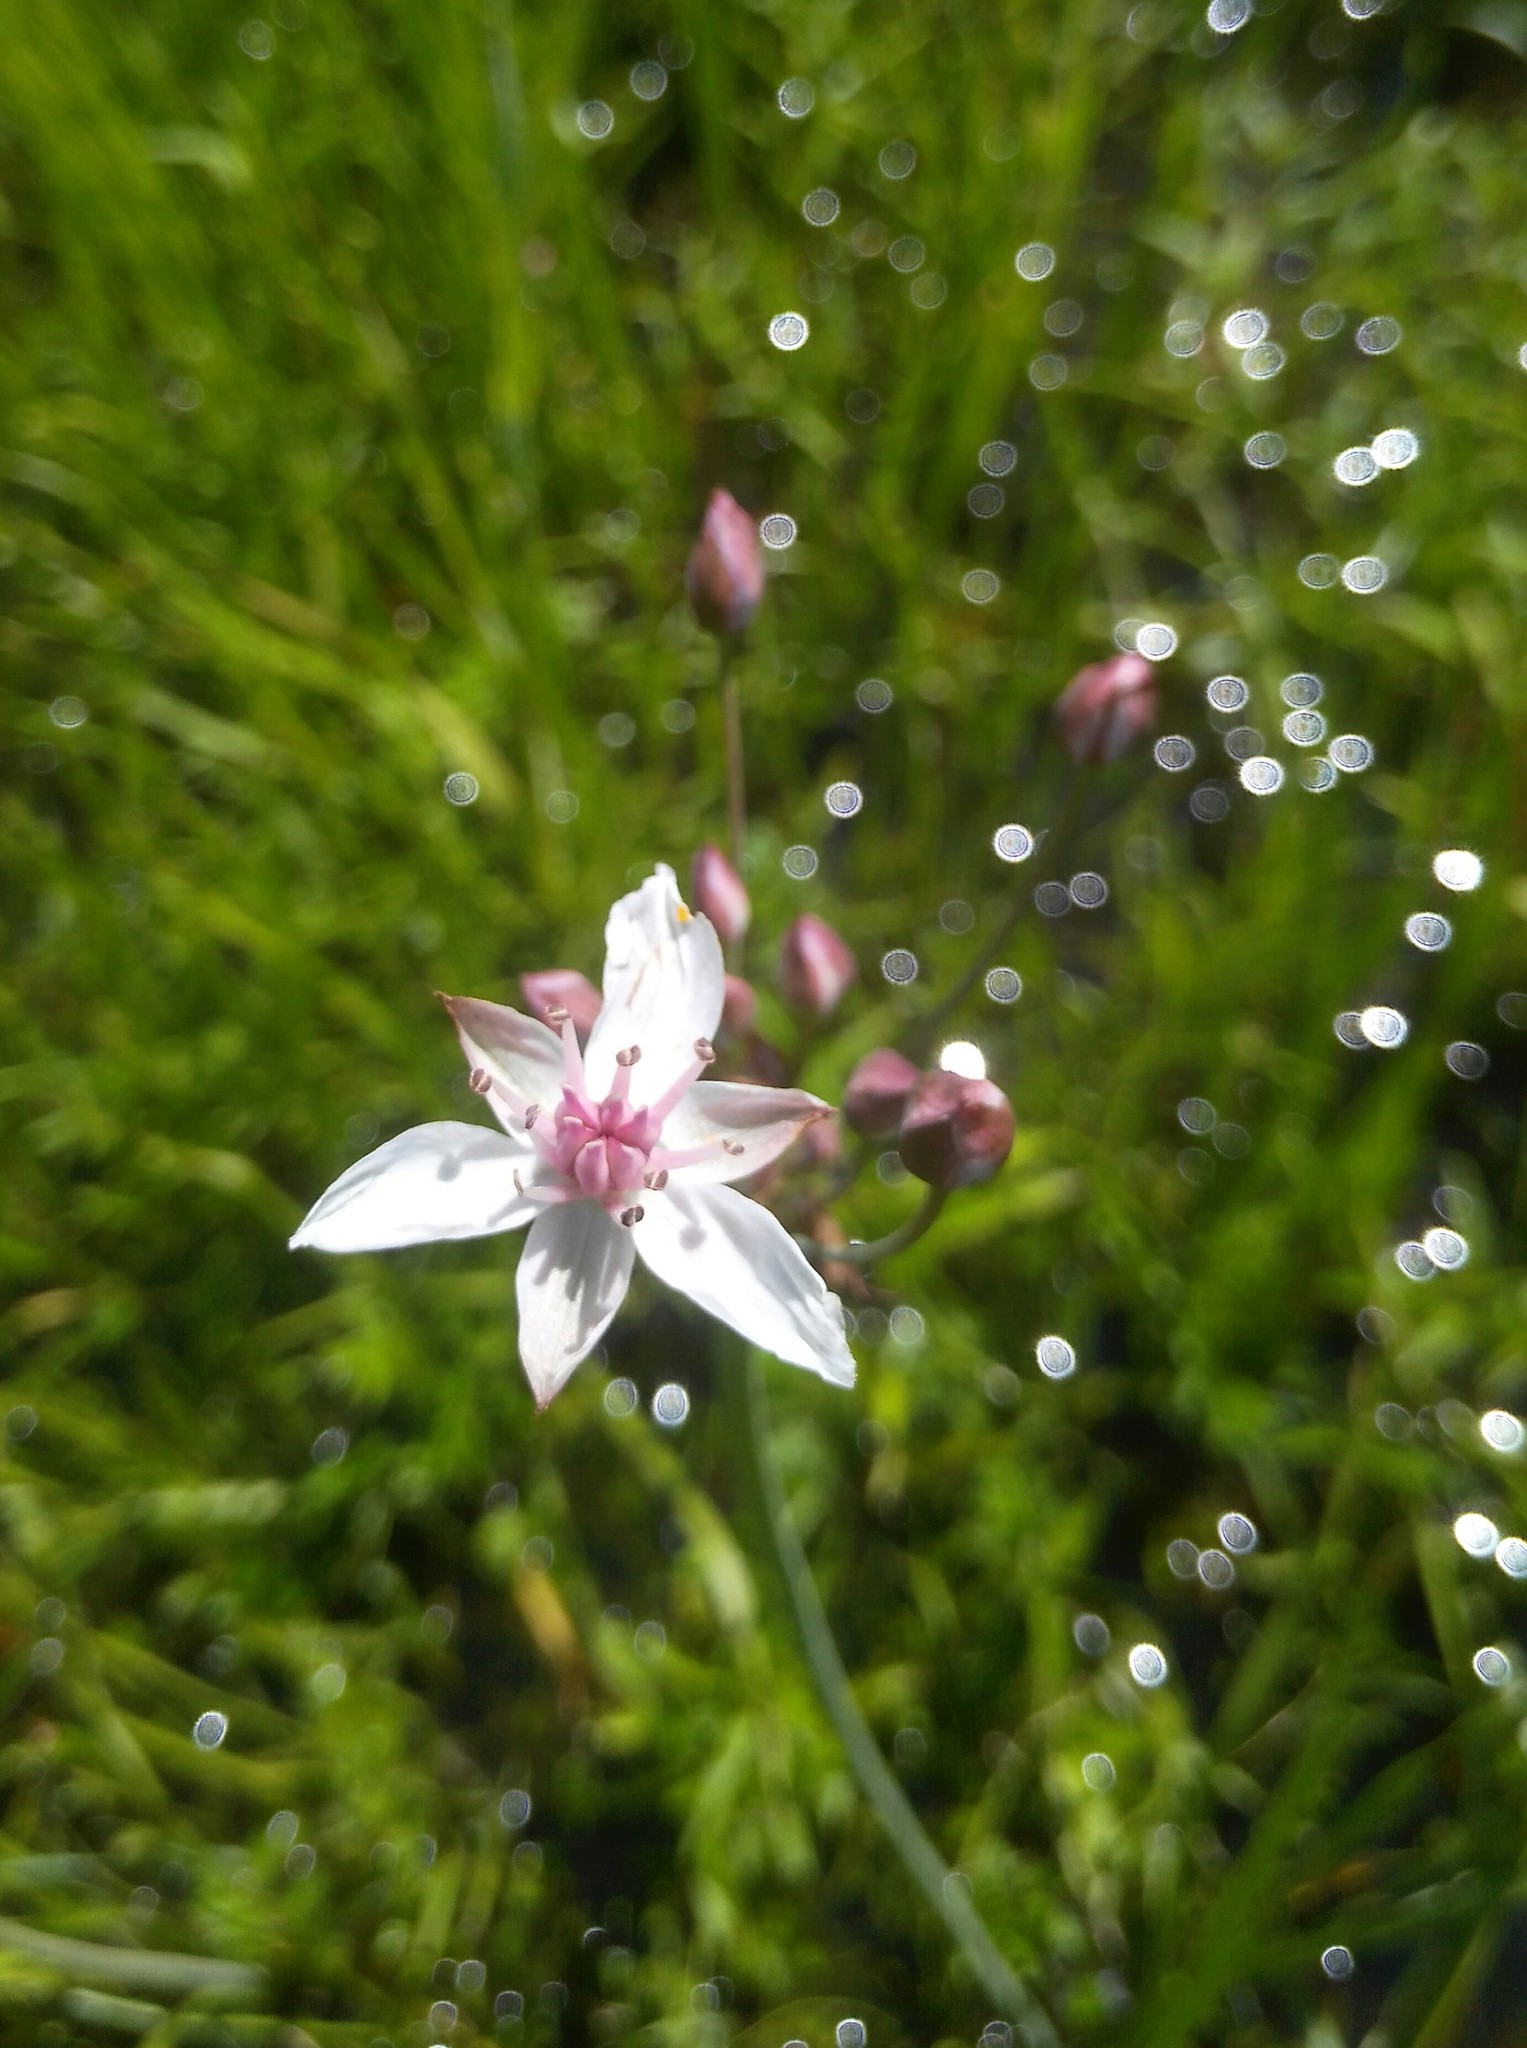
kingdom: Plantae
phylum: Tracheophyta
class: Liliopsida
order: Alismatales
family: Butomaceae
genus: Butomus
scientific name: Butomus umbellatus
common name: Flowering-rush
